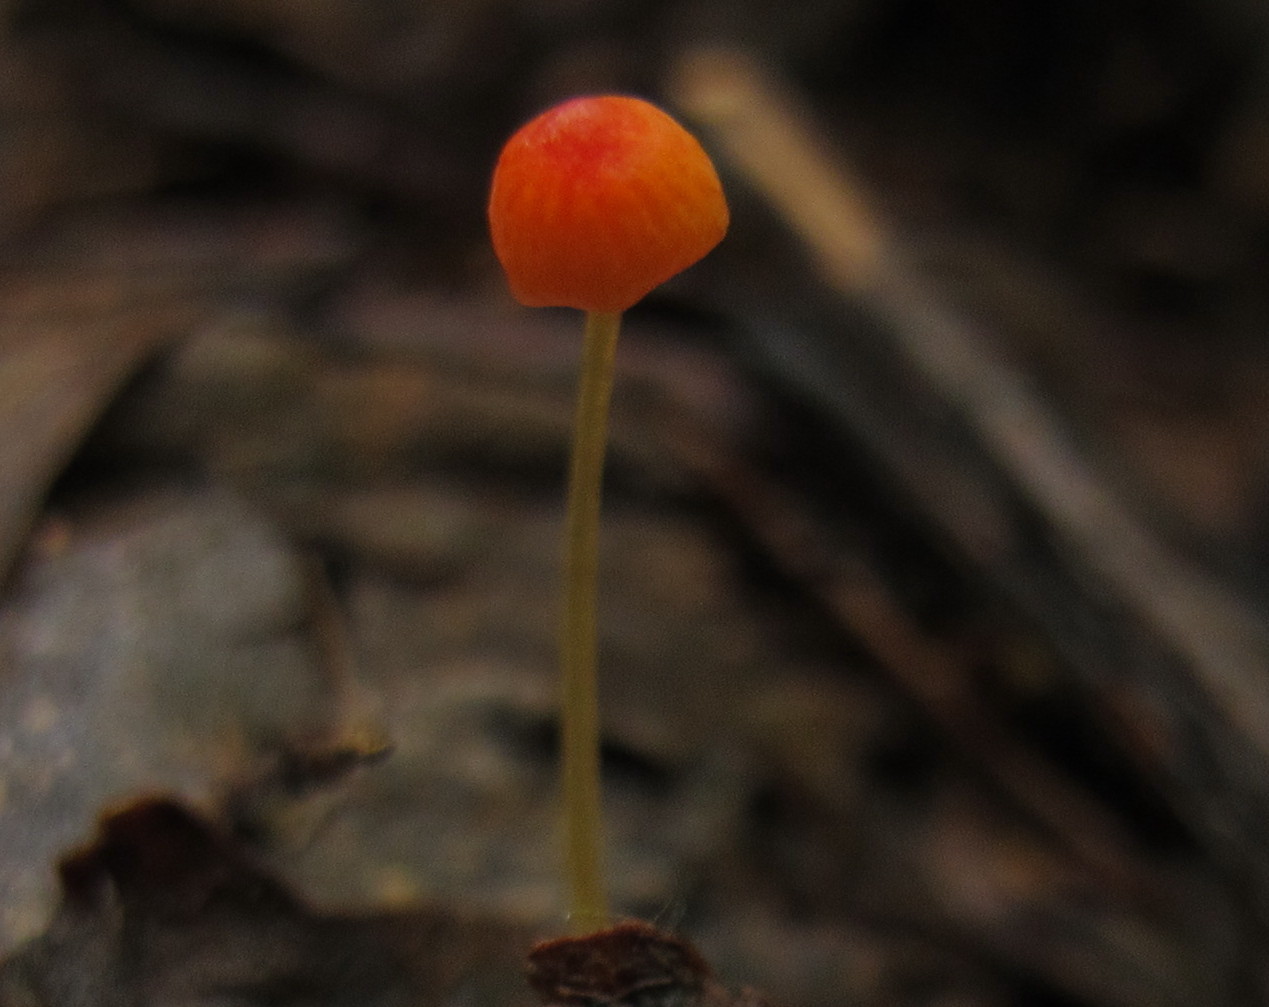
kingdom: Fungi
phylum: Basidiomycota
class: Agaricomycetes
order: Agaricales
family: Mycenaceae
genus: Mycena
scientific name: Mycena acicula
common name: Orange bonnet
